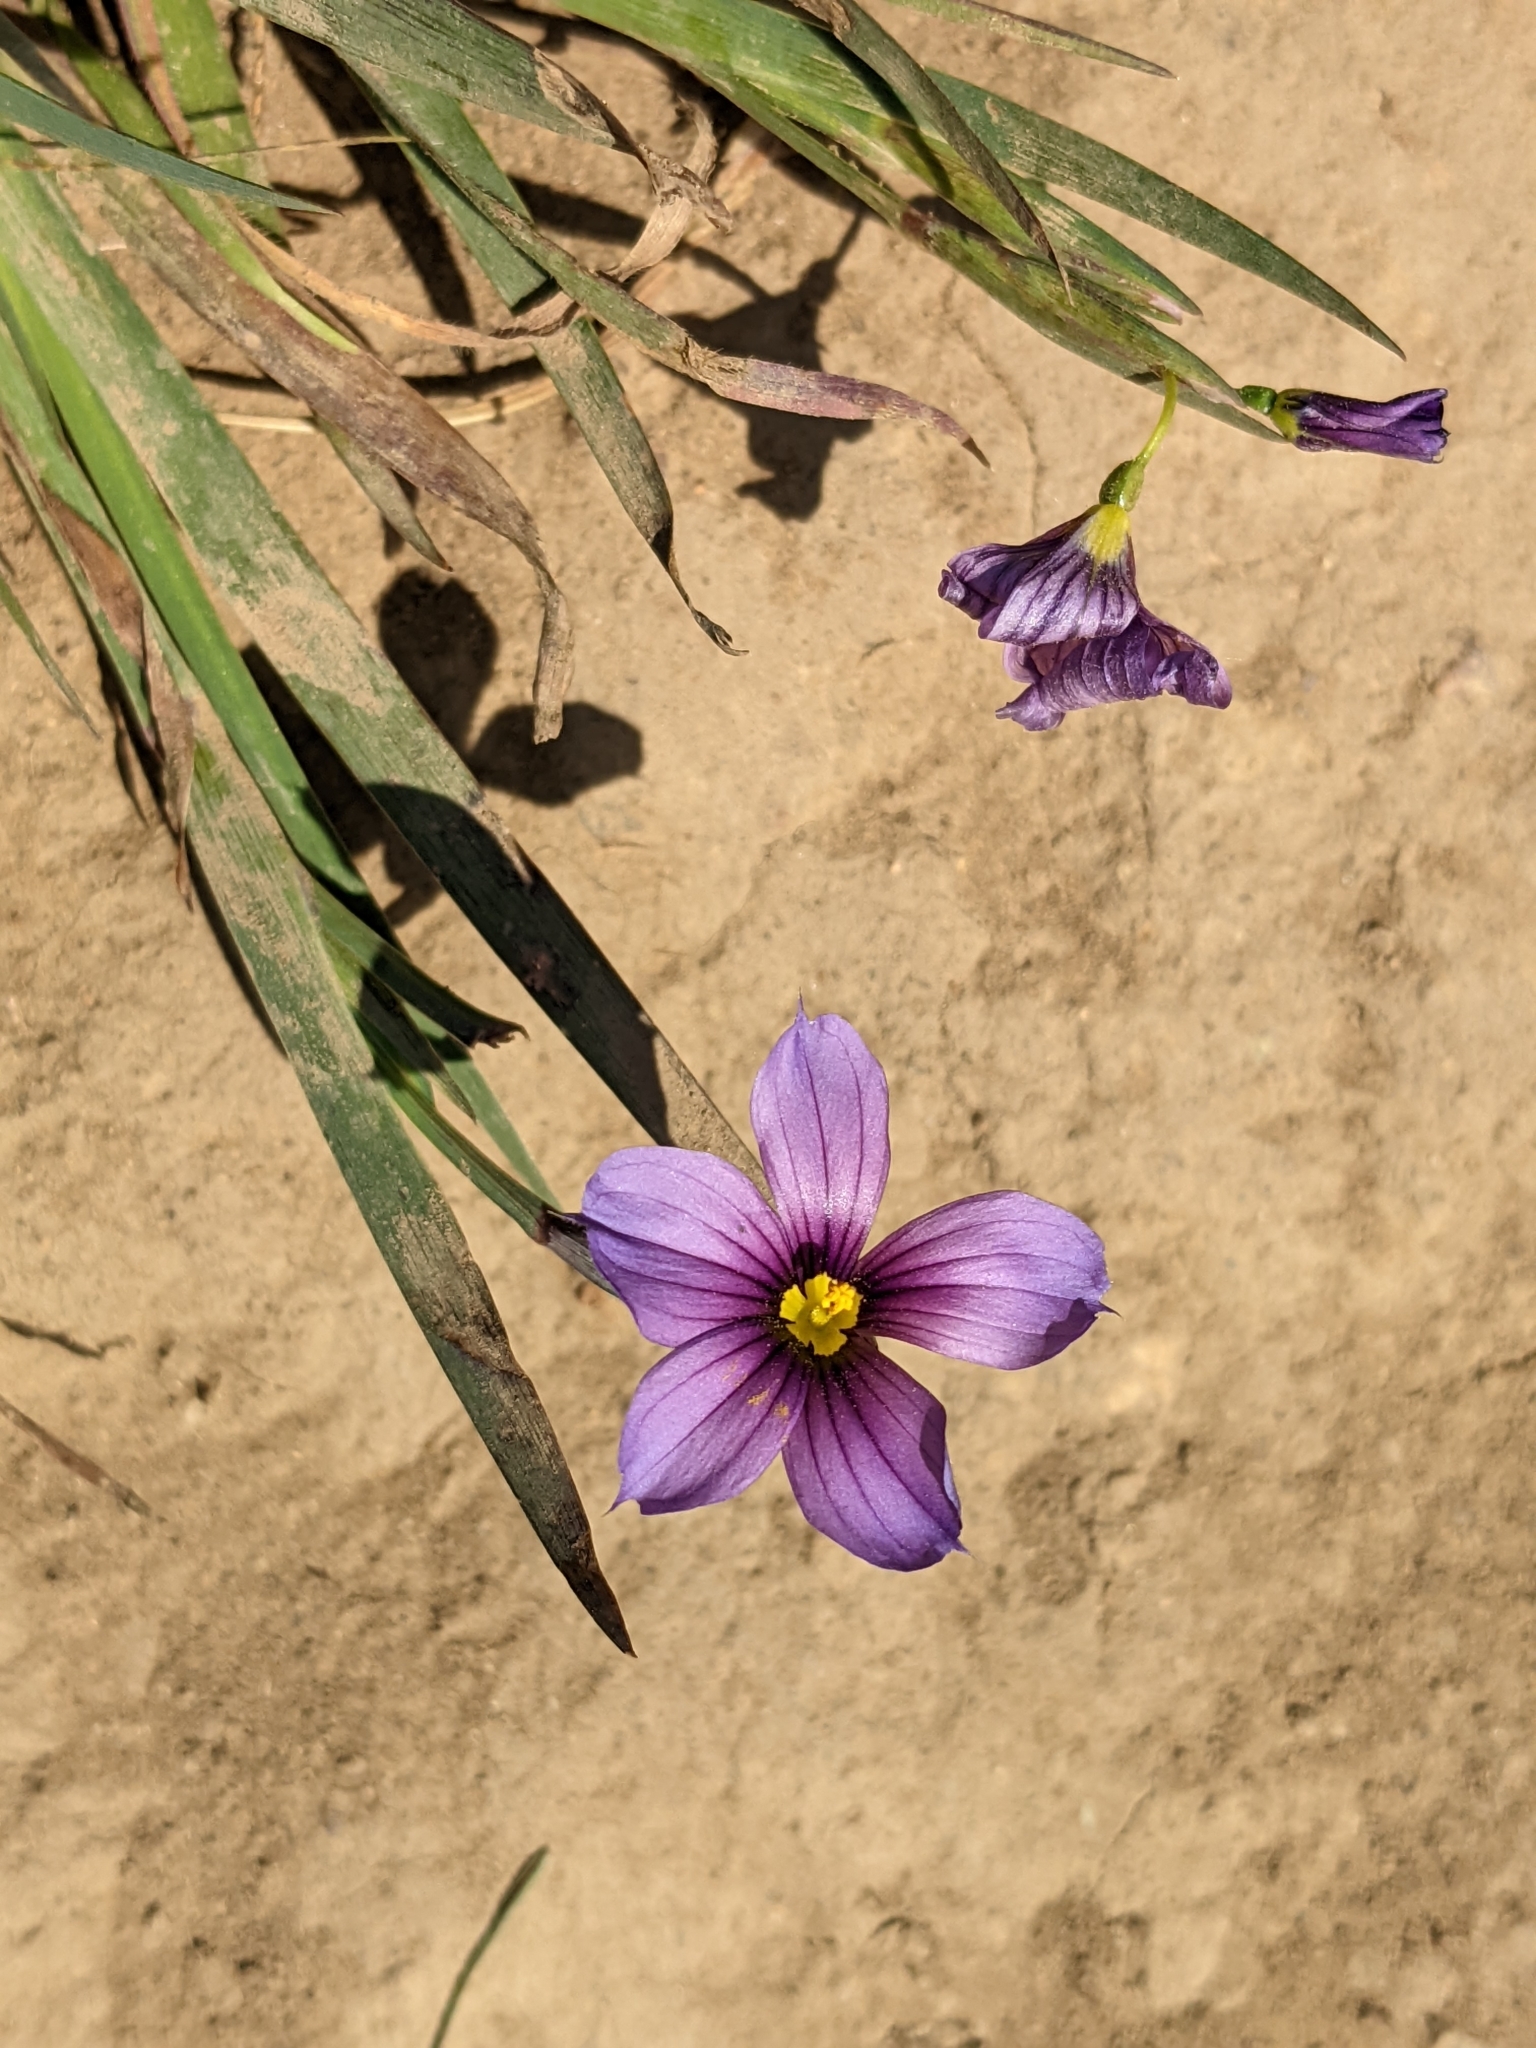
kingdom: Plantae
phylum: Tracheophyta
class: Liliopsida
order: Asparagales
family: Iridaceae
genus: Sisyrinchium
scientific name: Sisyrinchium bellum
